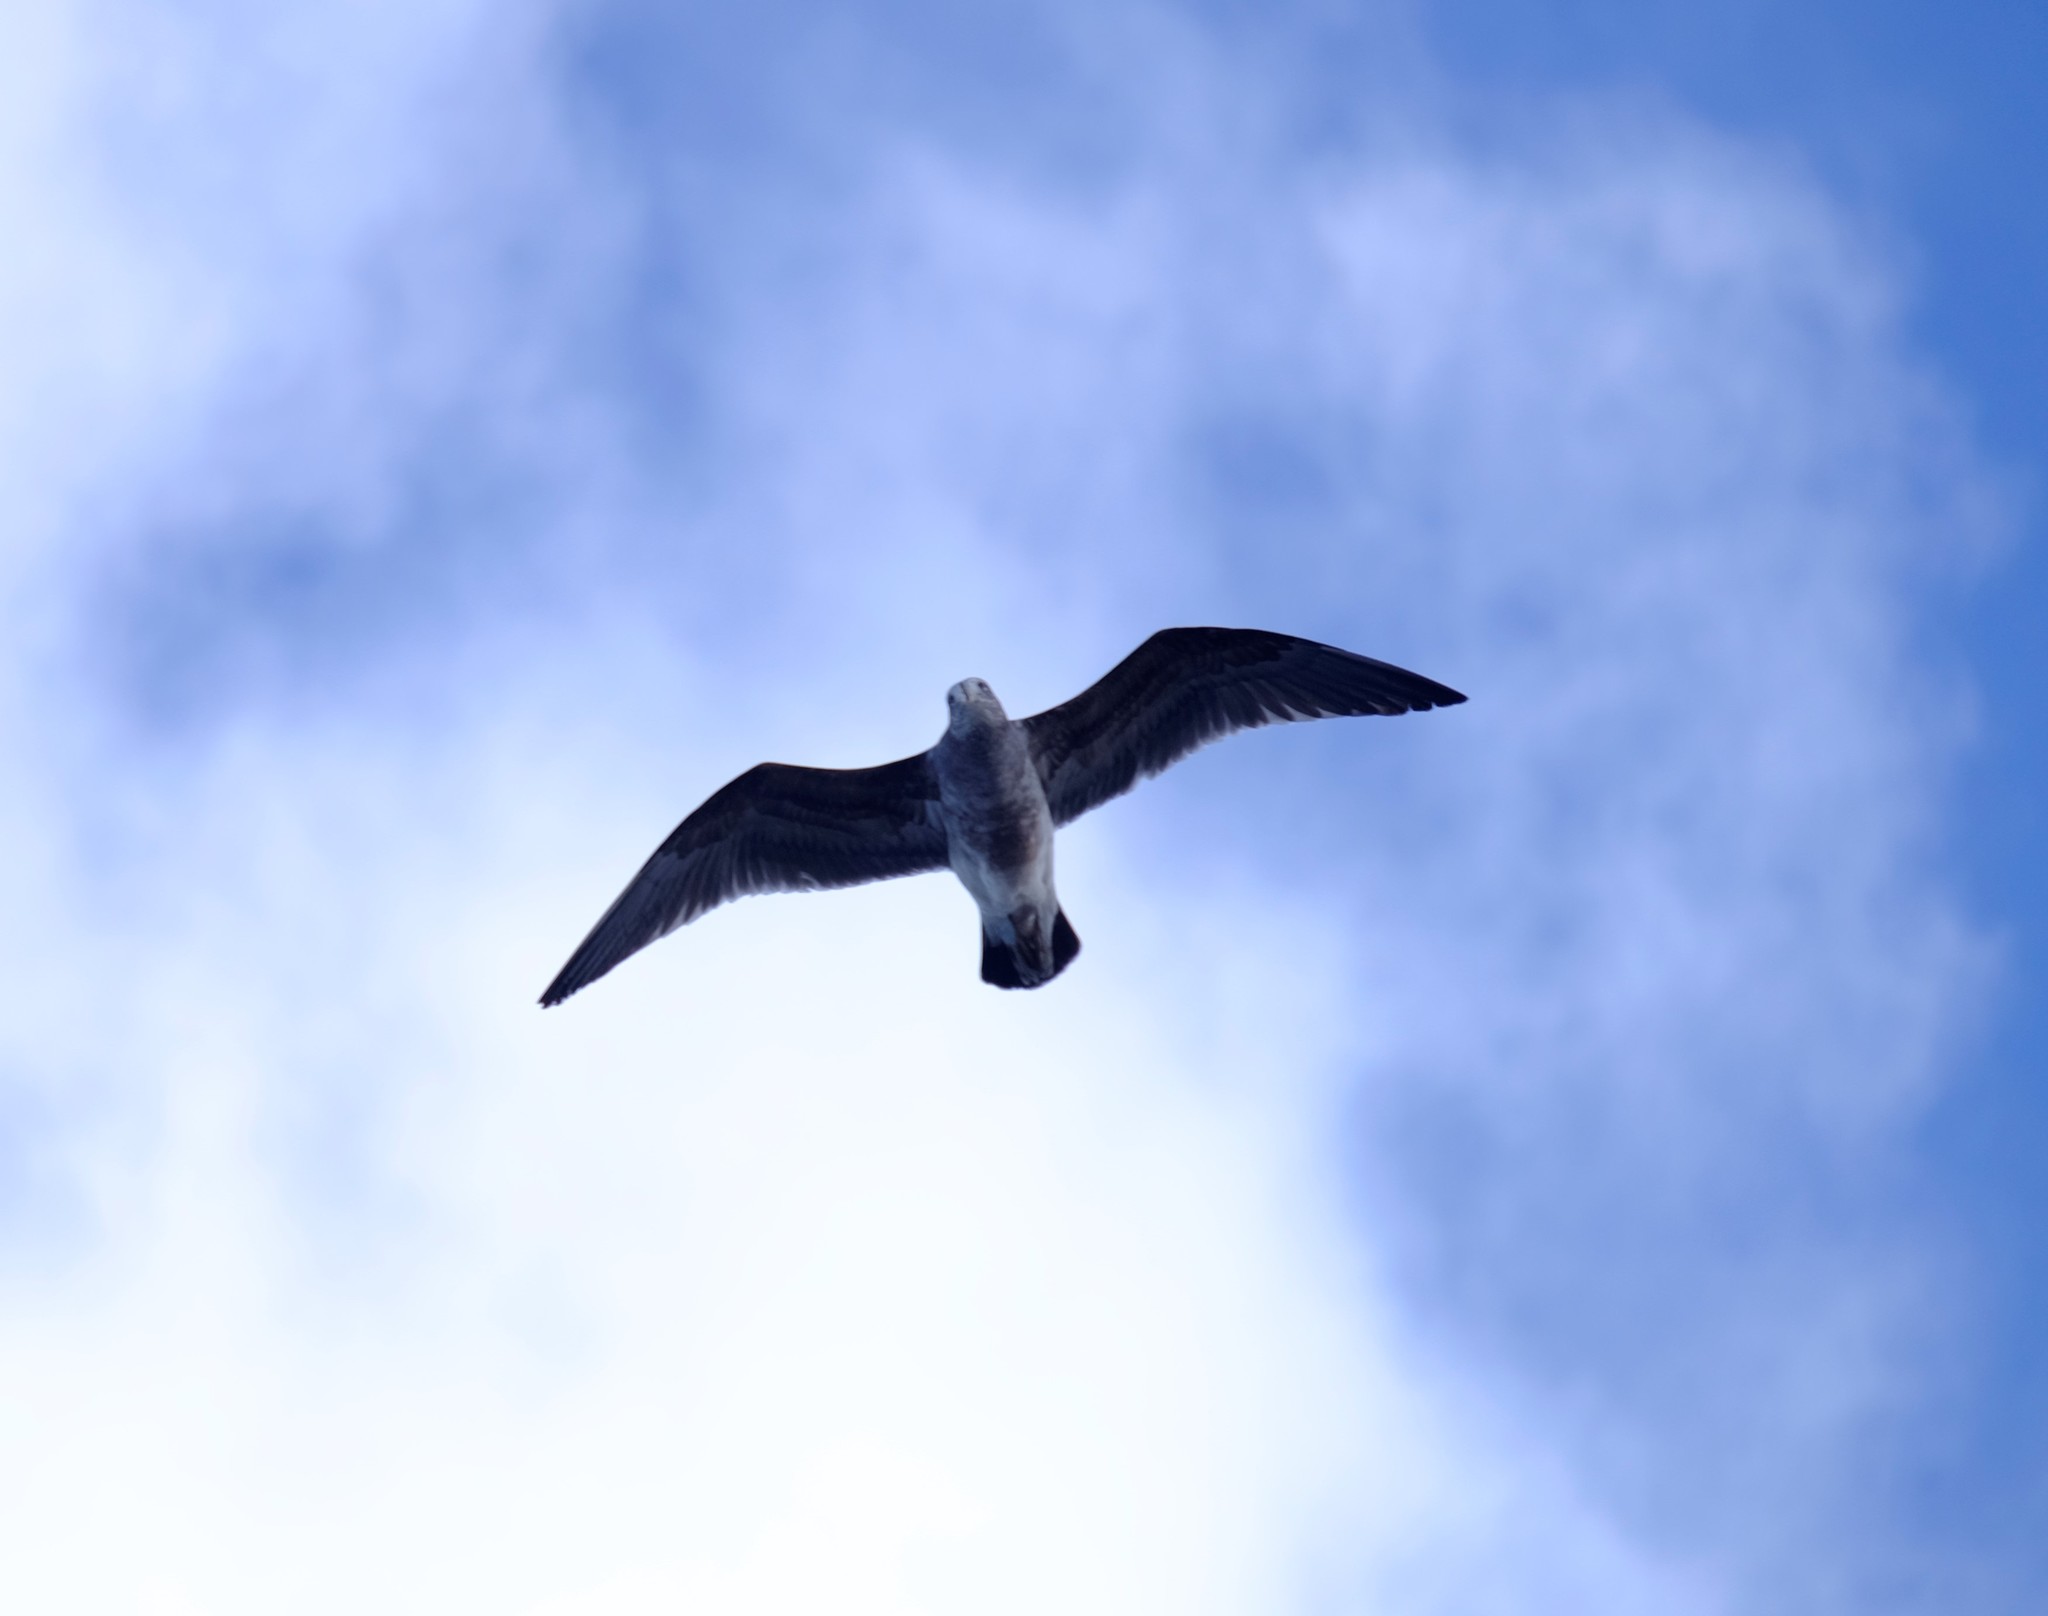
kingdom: Animalia
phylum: Chordata
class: Aves
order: Charadriiformes
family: Laridae
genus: Larus
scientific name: Larus pacificus
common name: Pacific gull
